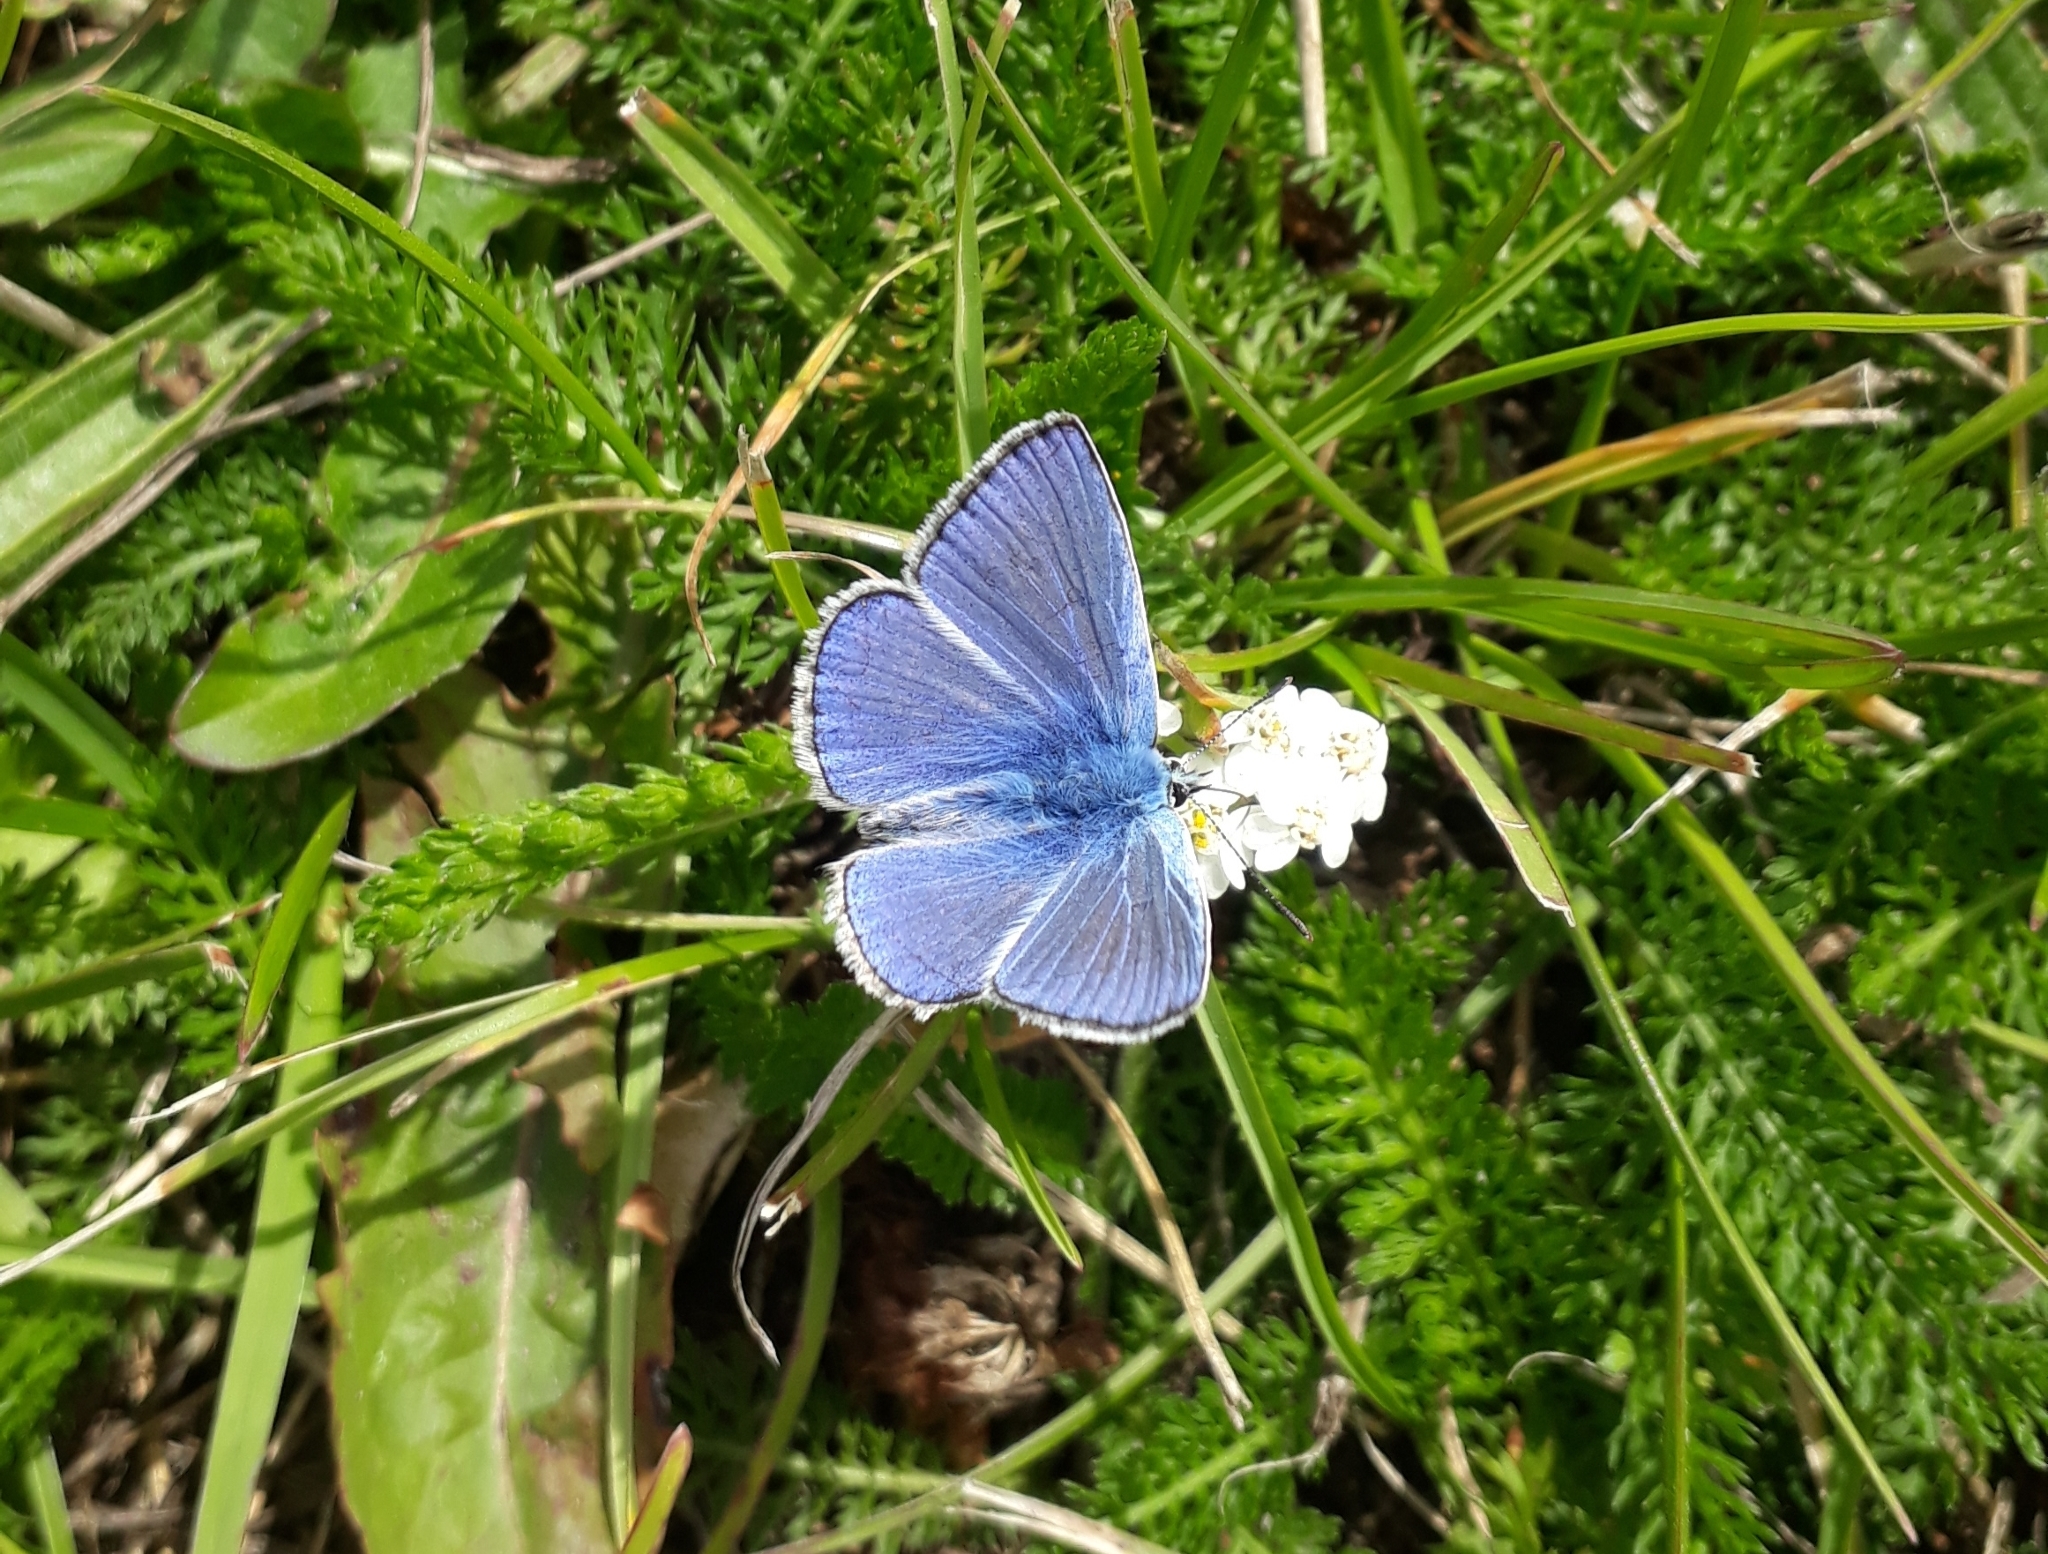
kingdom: Animalia
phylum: Arthropoda
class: Insecta
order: Lepidoptera
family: Lycaenidae
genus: Polyommatus
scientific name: Polyommatus icarus
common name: Common blue
